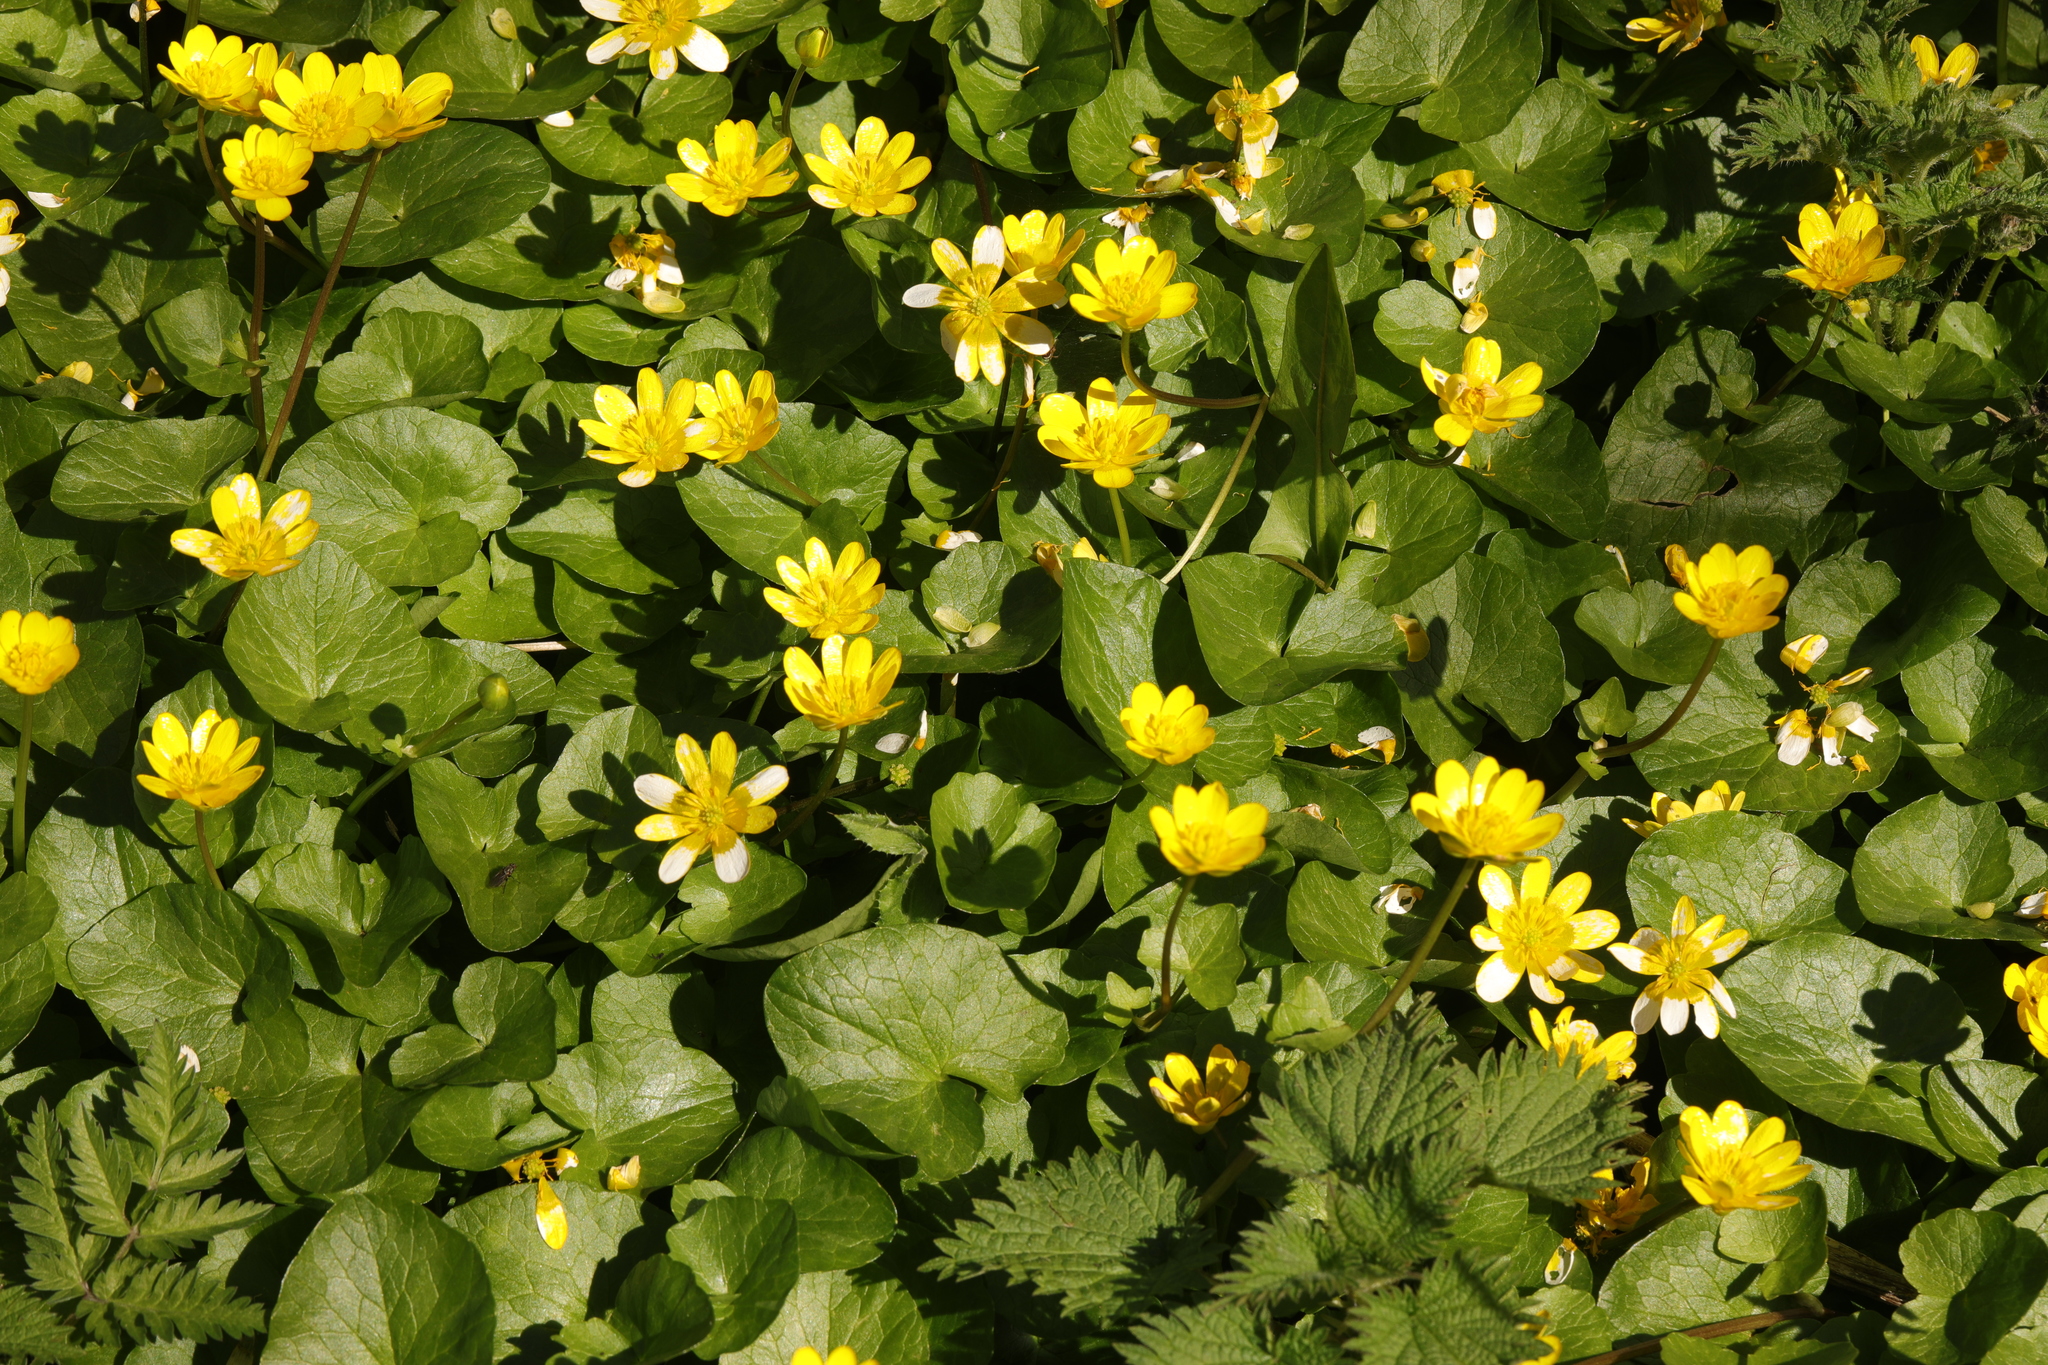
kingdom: Plantae
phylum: Tracheophyta
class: Magnoliopsida
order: Ranunculales
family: Ranunculaceae
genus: Ficaria
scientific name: Ficaria verna
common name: Lesser celandine
